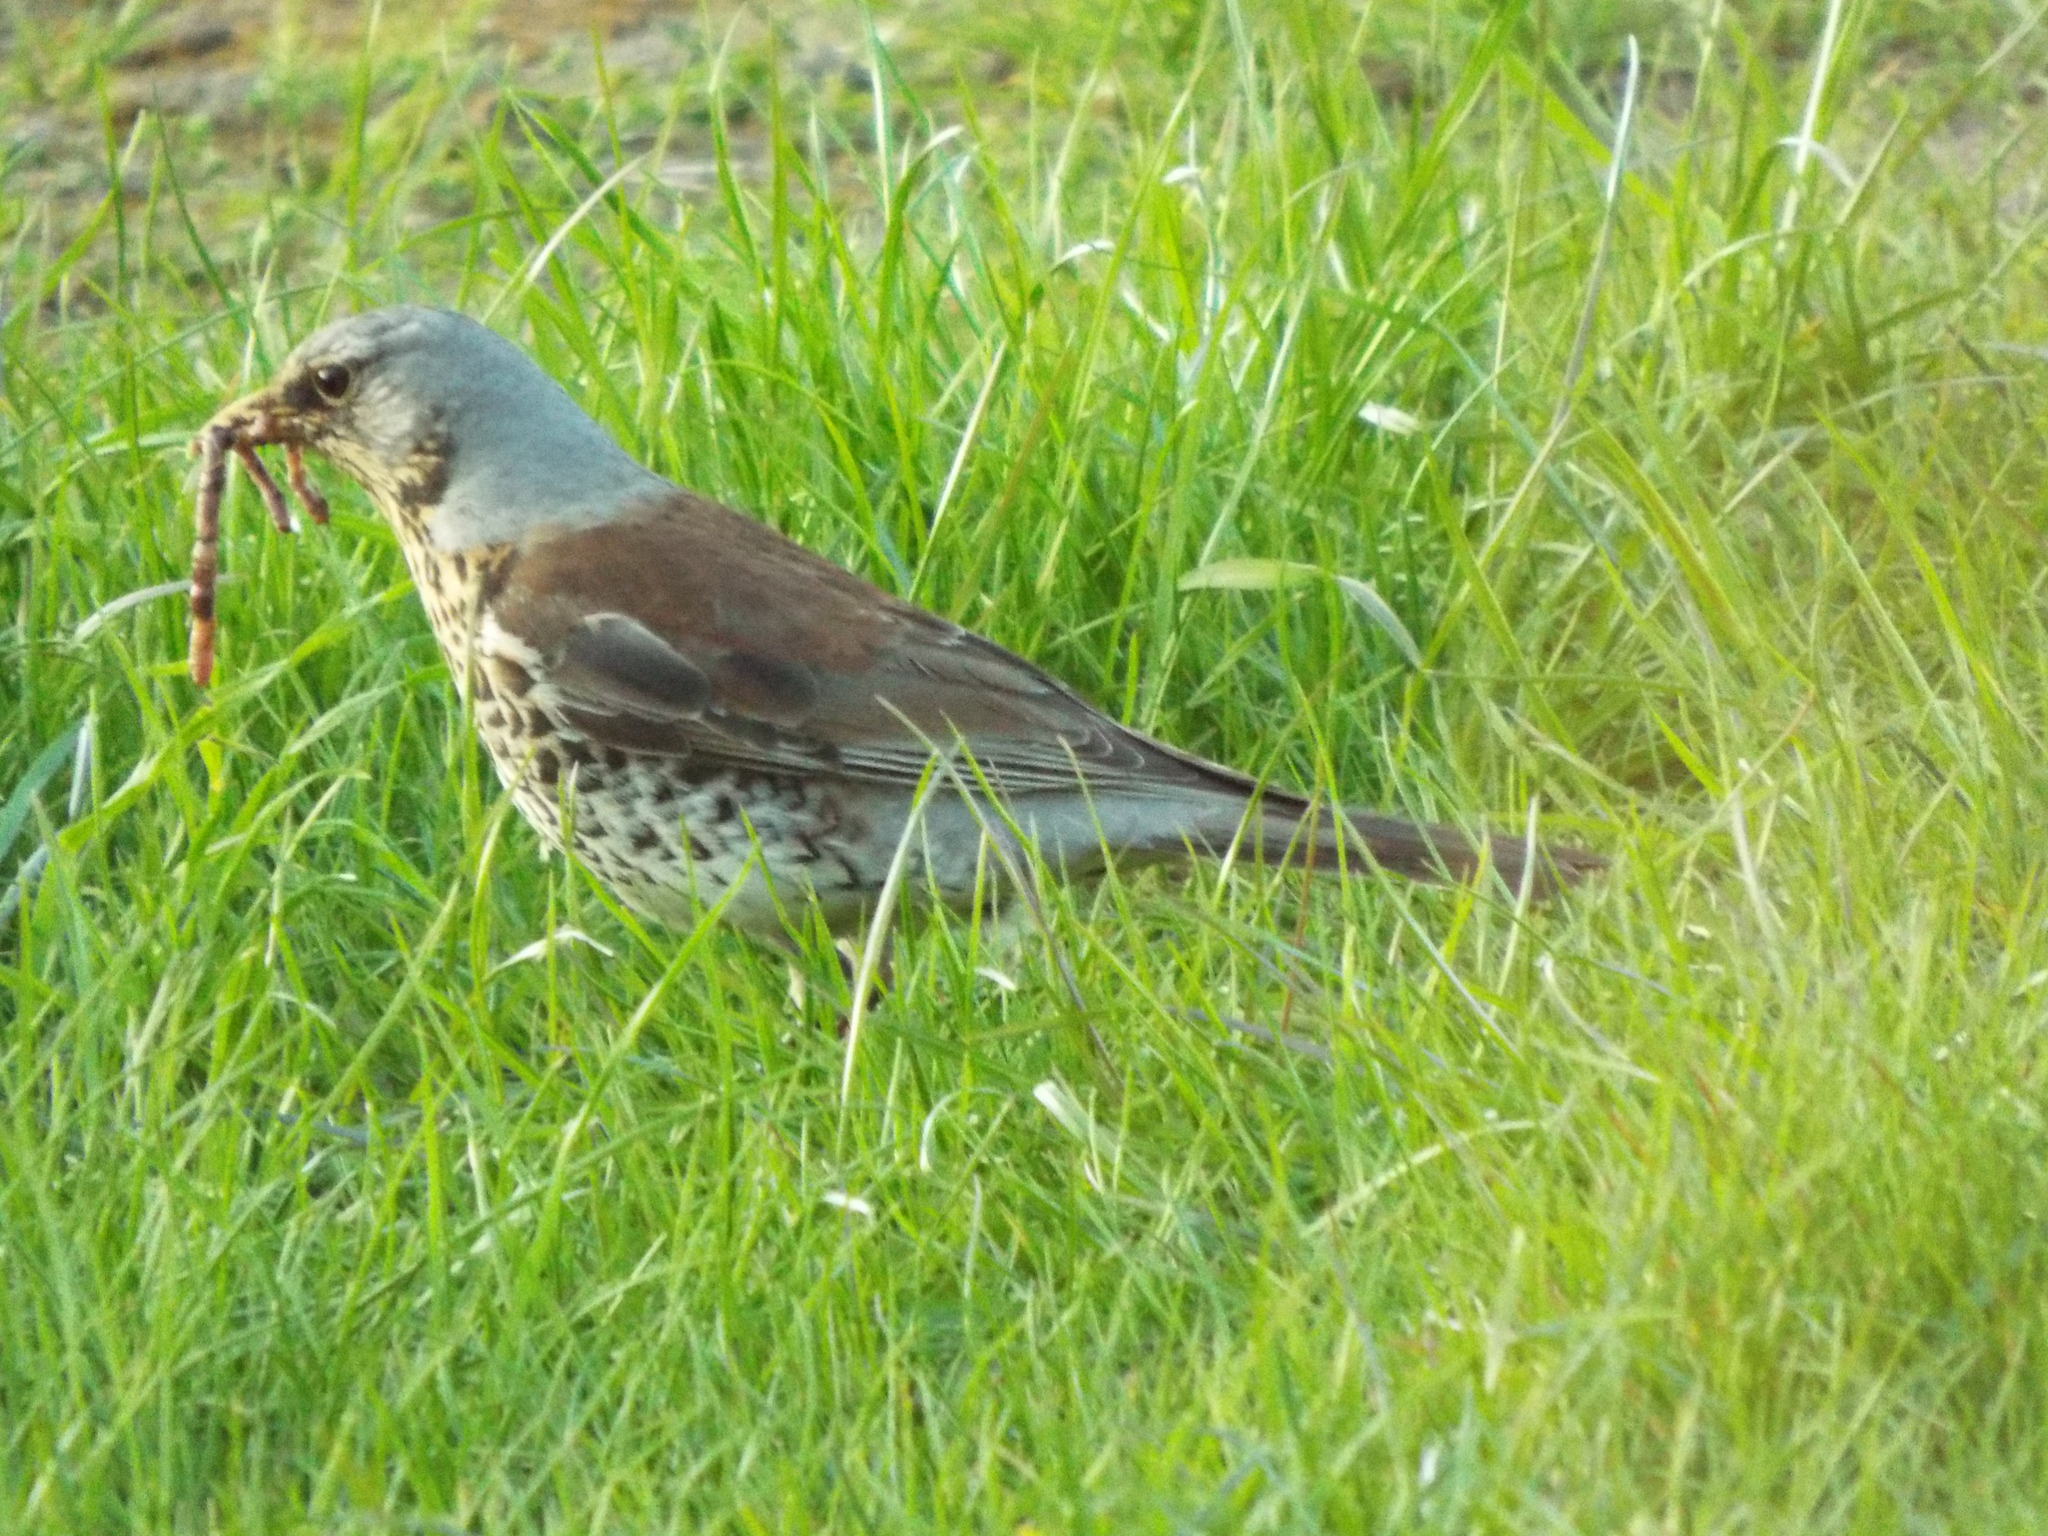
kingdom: Animalia
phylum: Chordata
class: Aves
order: Passeriformes
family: Turdidae
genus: Turdus
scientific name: Turdus pilaris
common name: Fieldfare
